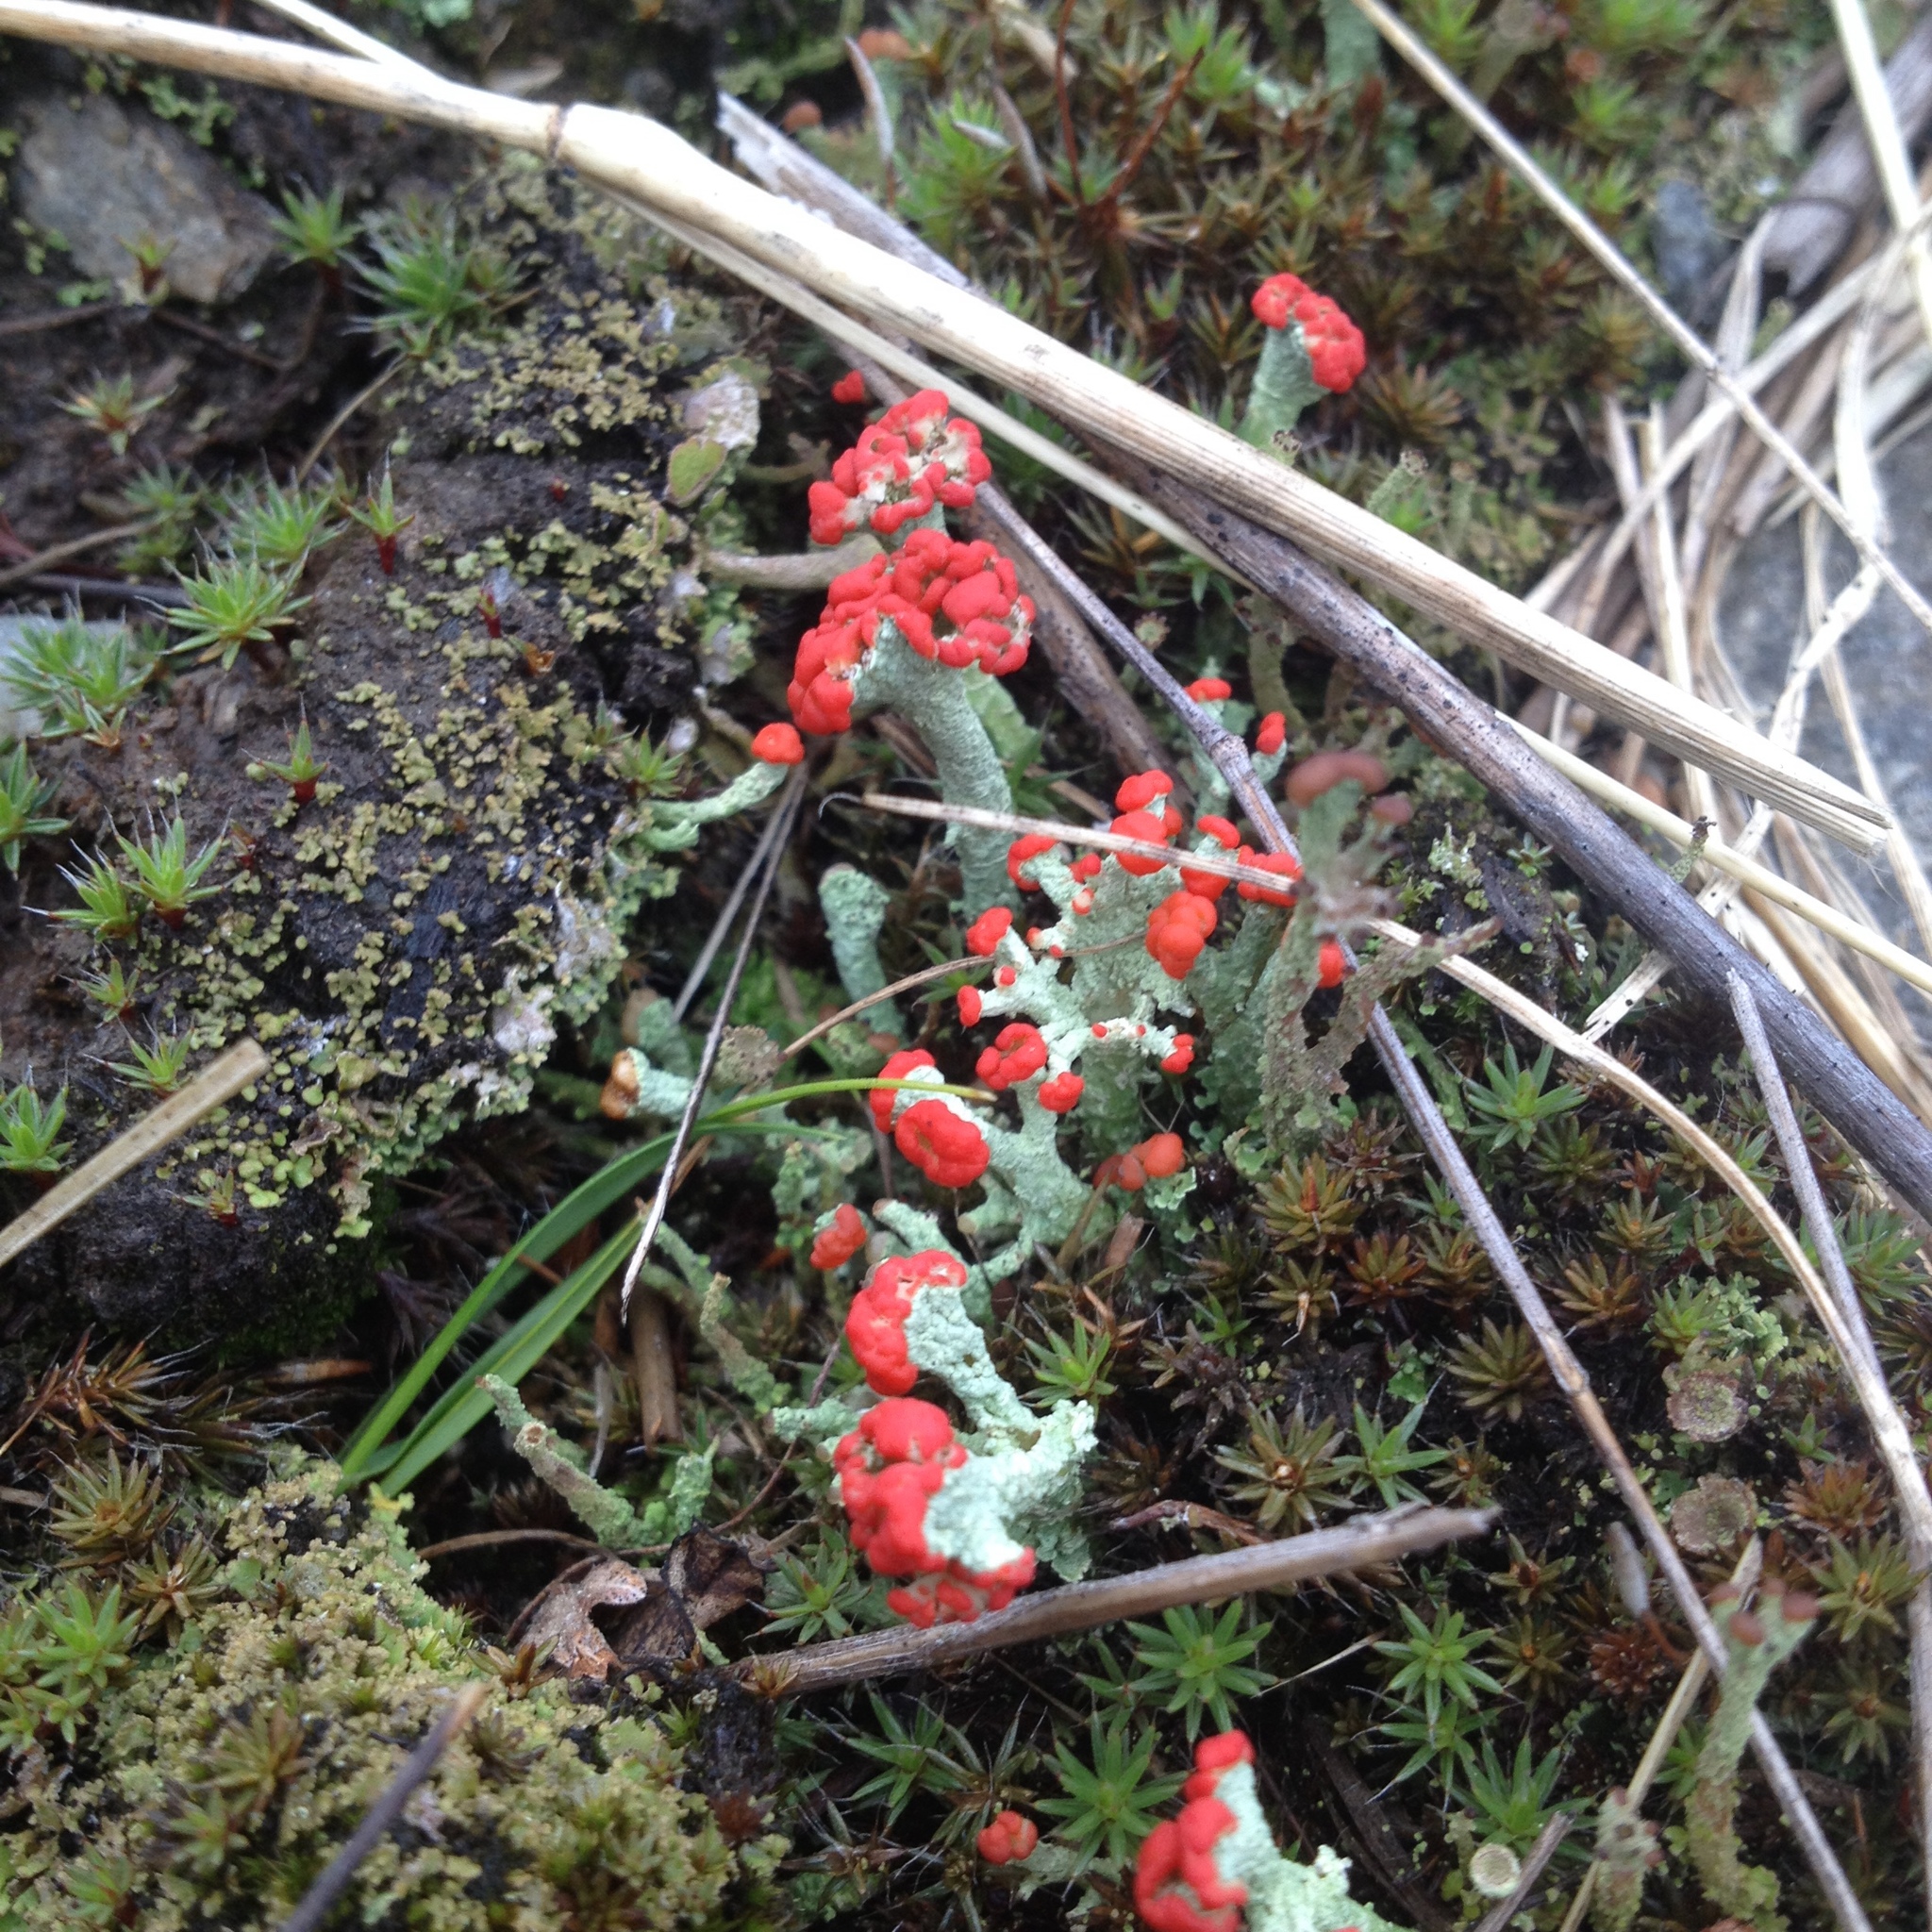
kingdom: Fungi
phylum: Ascomycota
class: Lecanoromycetes
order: Lecanorales
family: Cladoniaceae
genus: Cladonia
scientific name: Cladonia cristatella
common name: British soldier lichen
